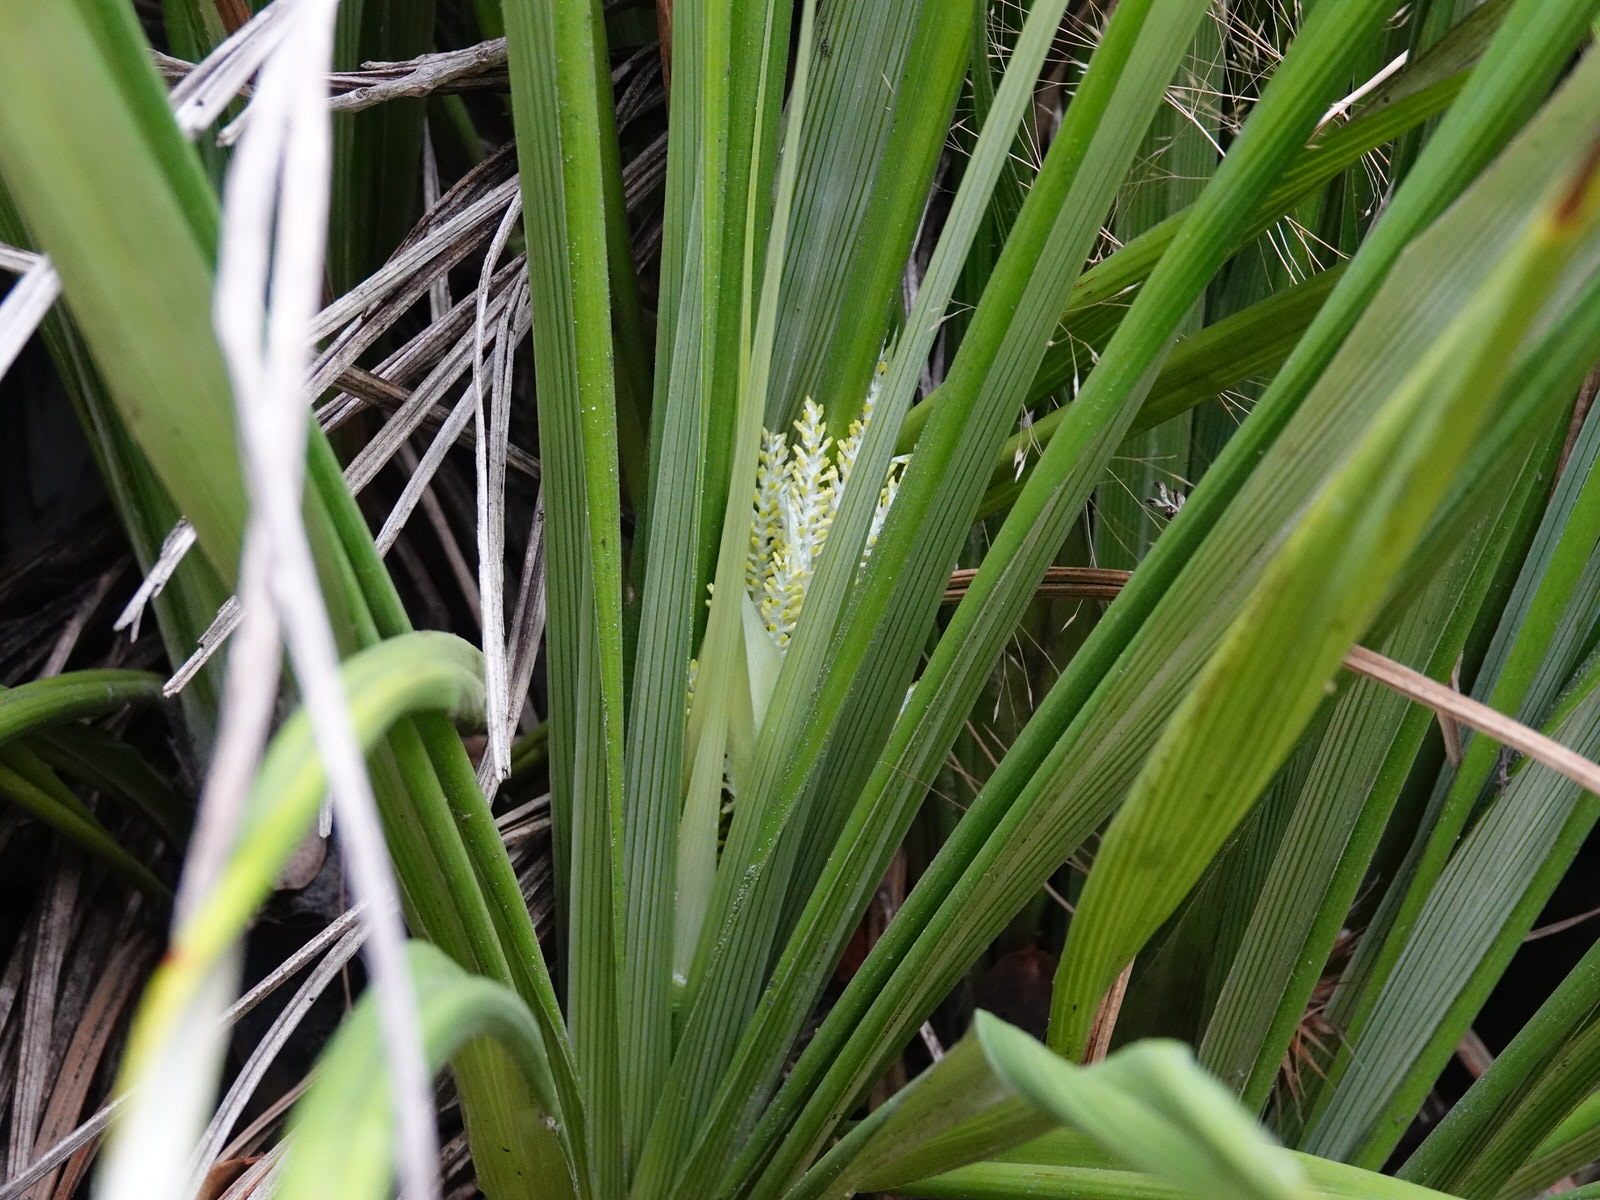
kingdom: Plantae
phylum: Tracheophyta
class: Liliopsida
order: Asparagales
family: Asteliaceae
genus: Astelia
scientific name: Astelia banksii
